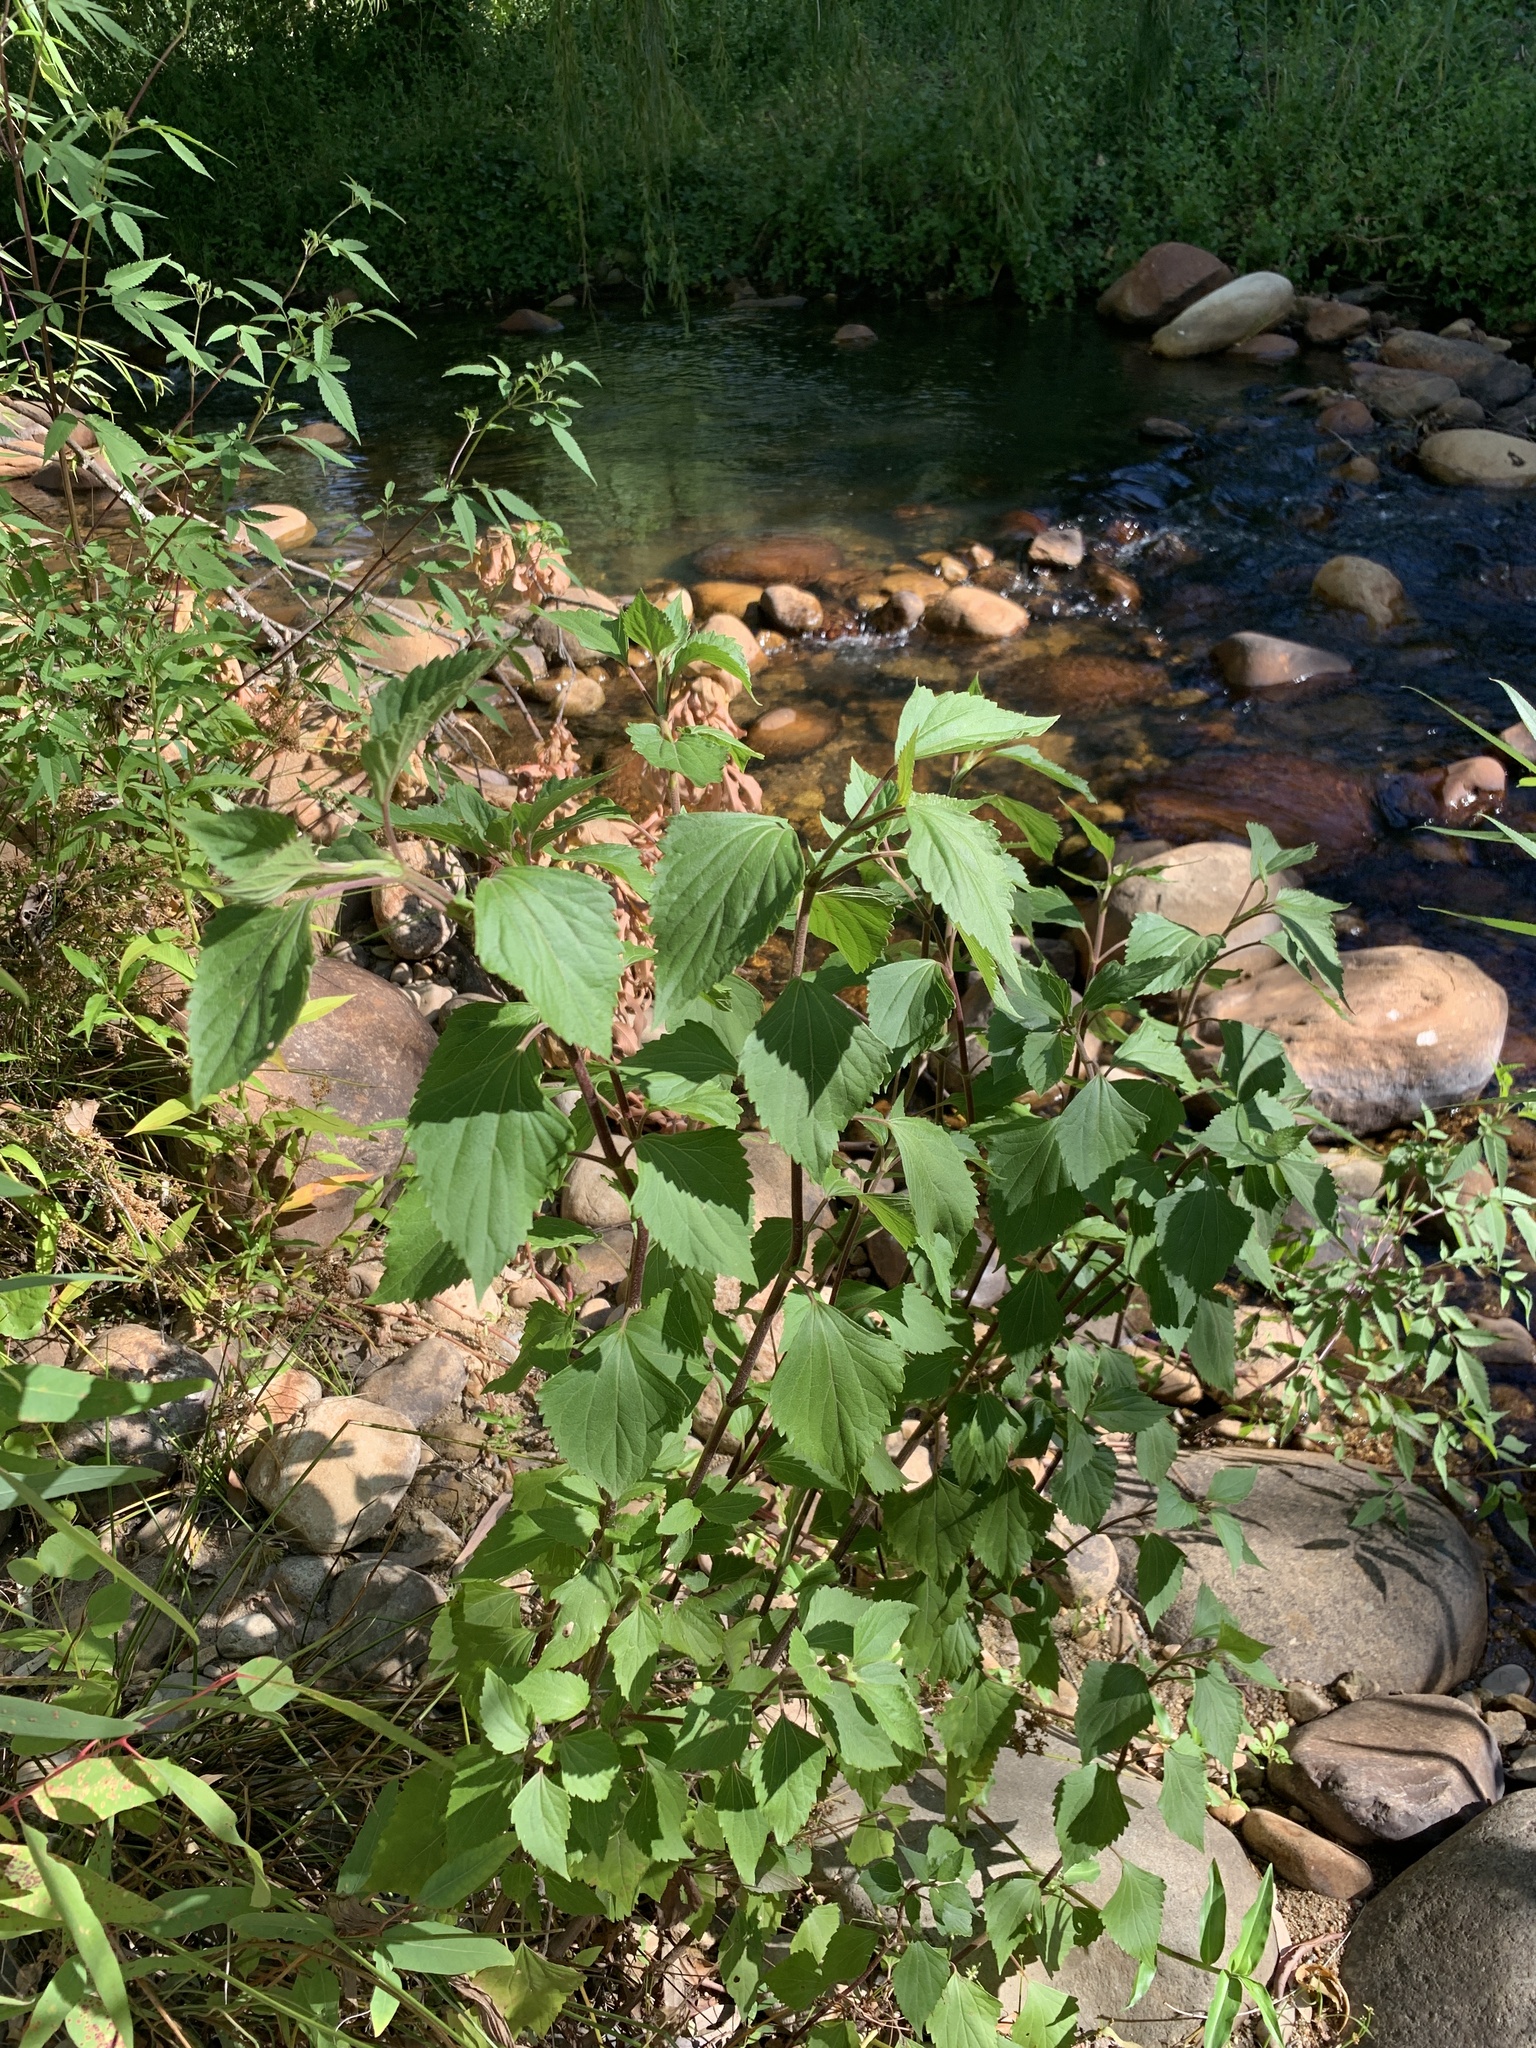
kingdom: Plantae
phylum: Tracheophyta
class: Magnoliopsida
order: Asterales
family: Asteraceae
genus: Ageratina
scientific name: Ageratina adenophora
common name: Sticky snakeroot
